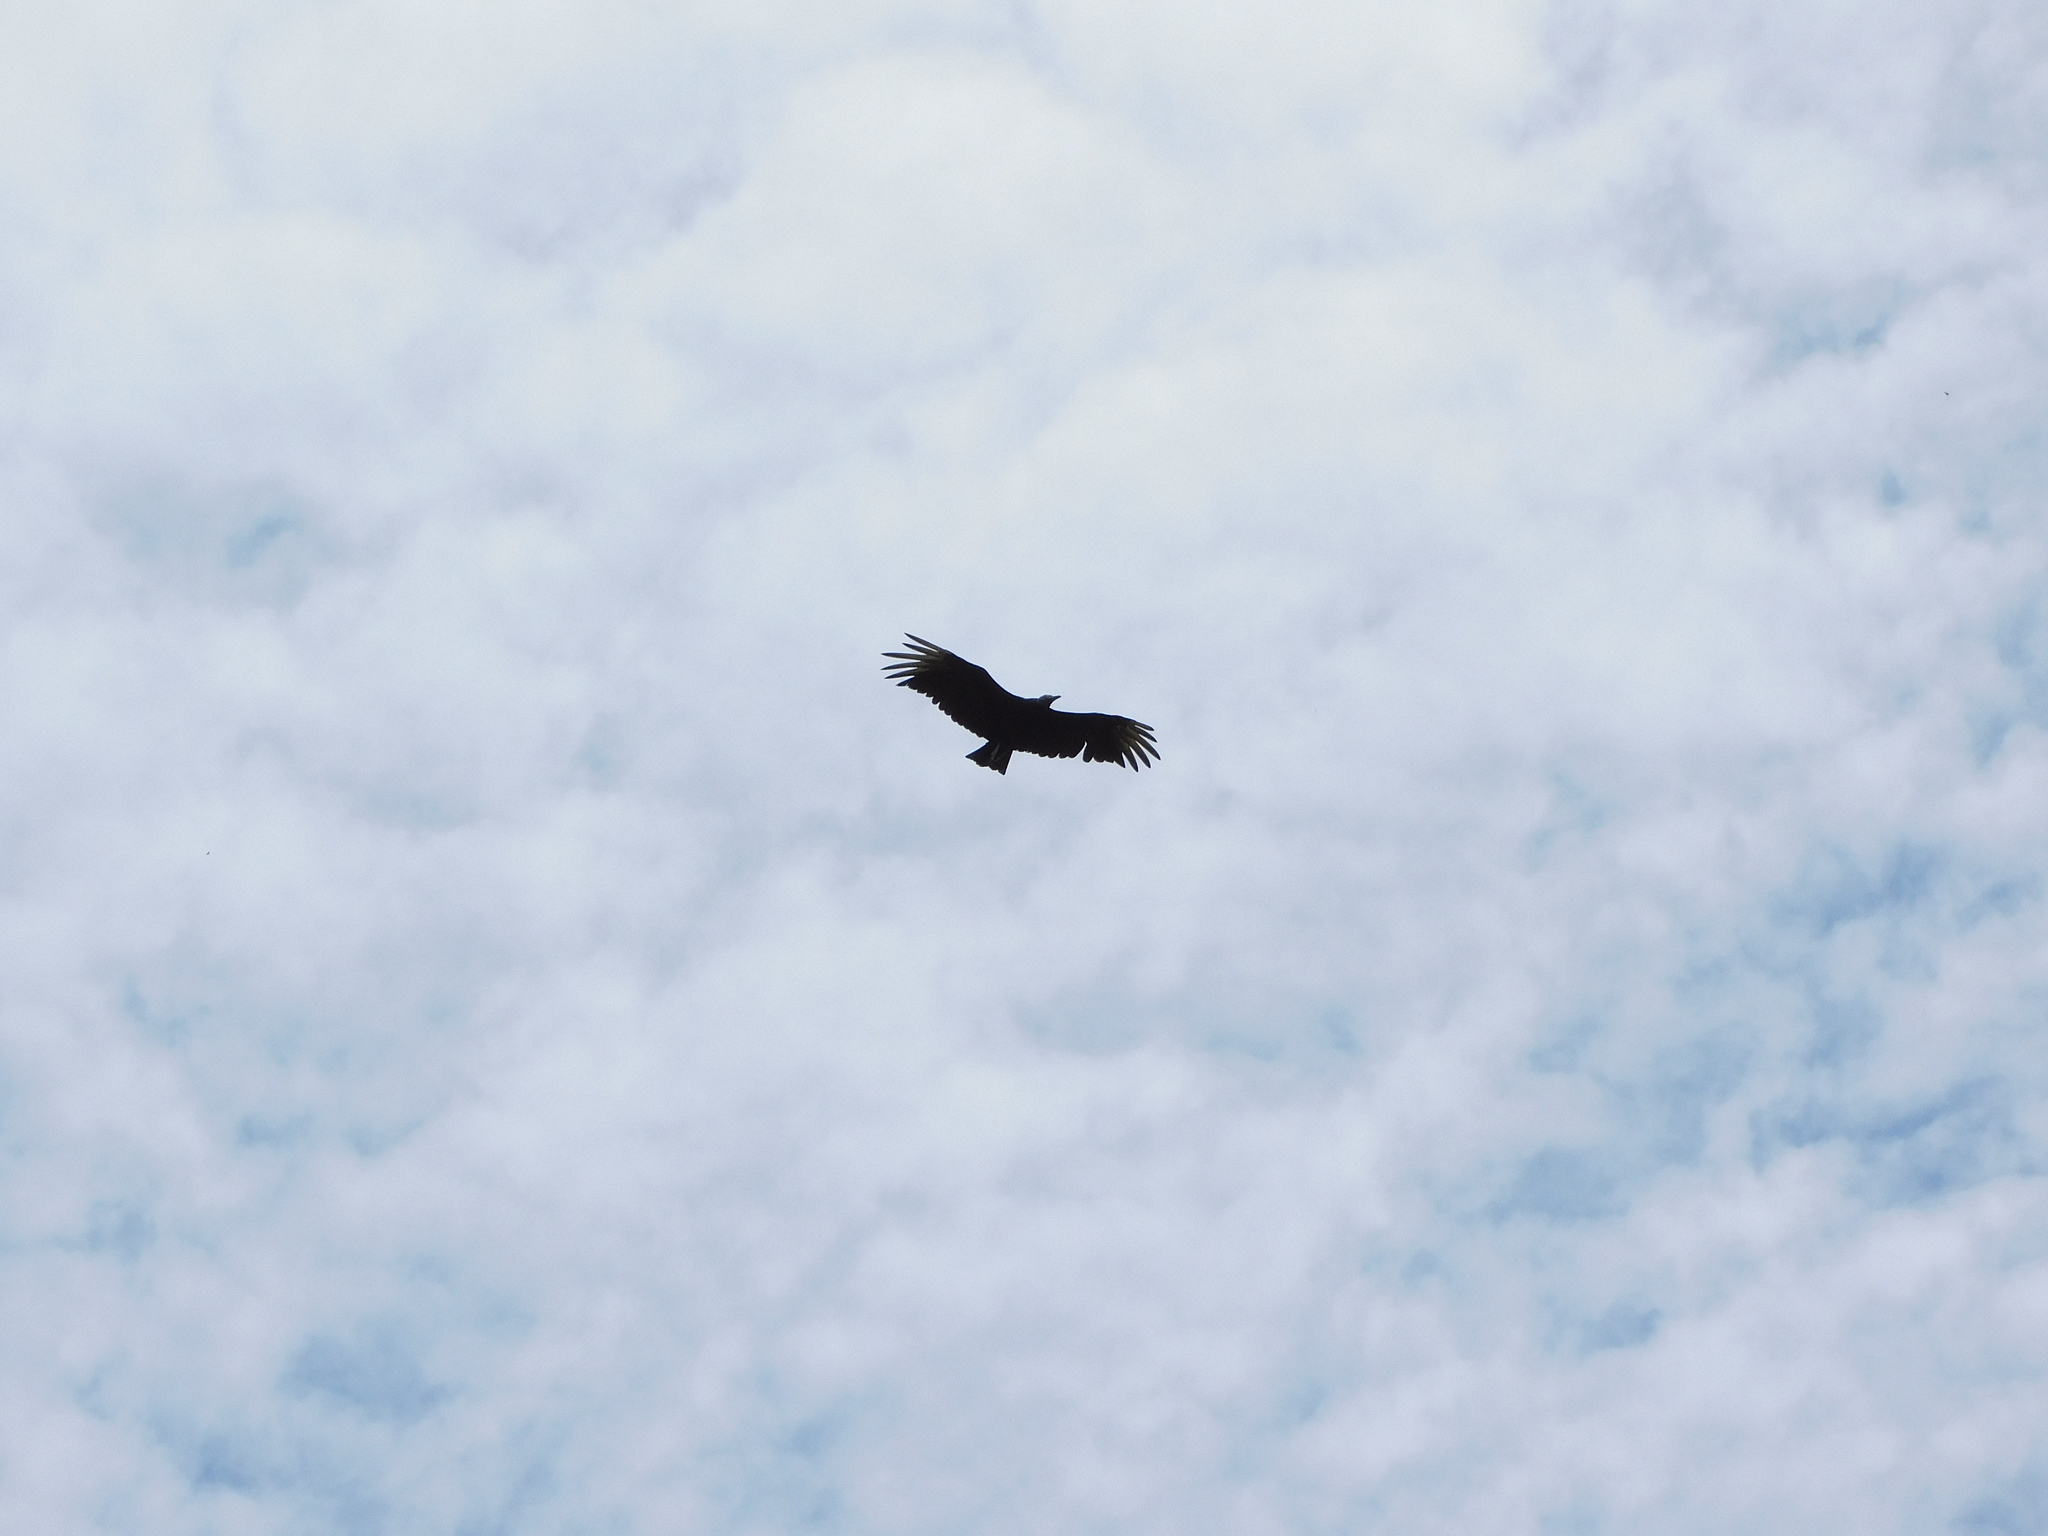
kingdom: Animalia
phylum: Chordata
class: Aves
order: Accipitriformes
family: Cathartidae
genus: Coragyps
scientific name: Coragyps atratus
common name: Black vulture
